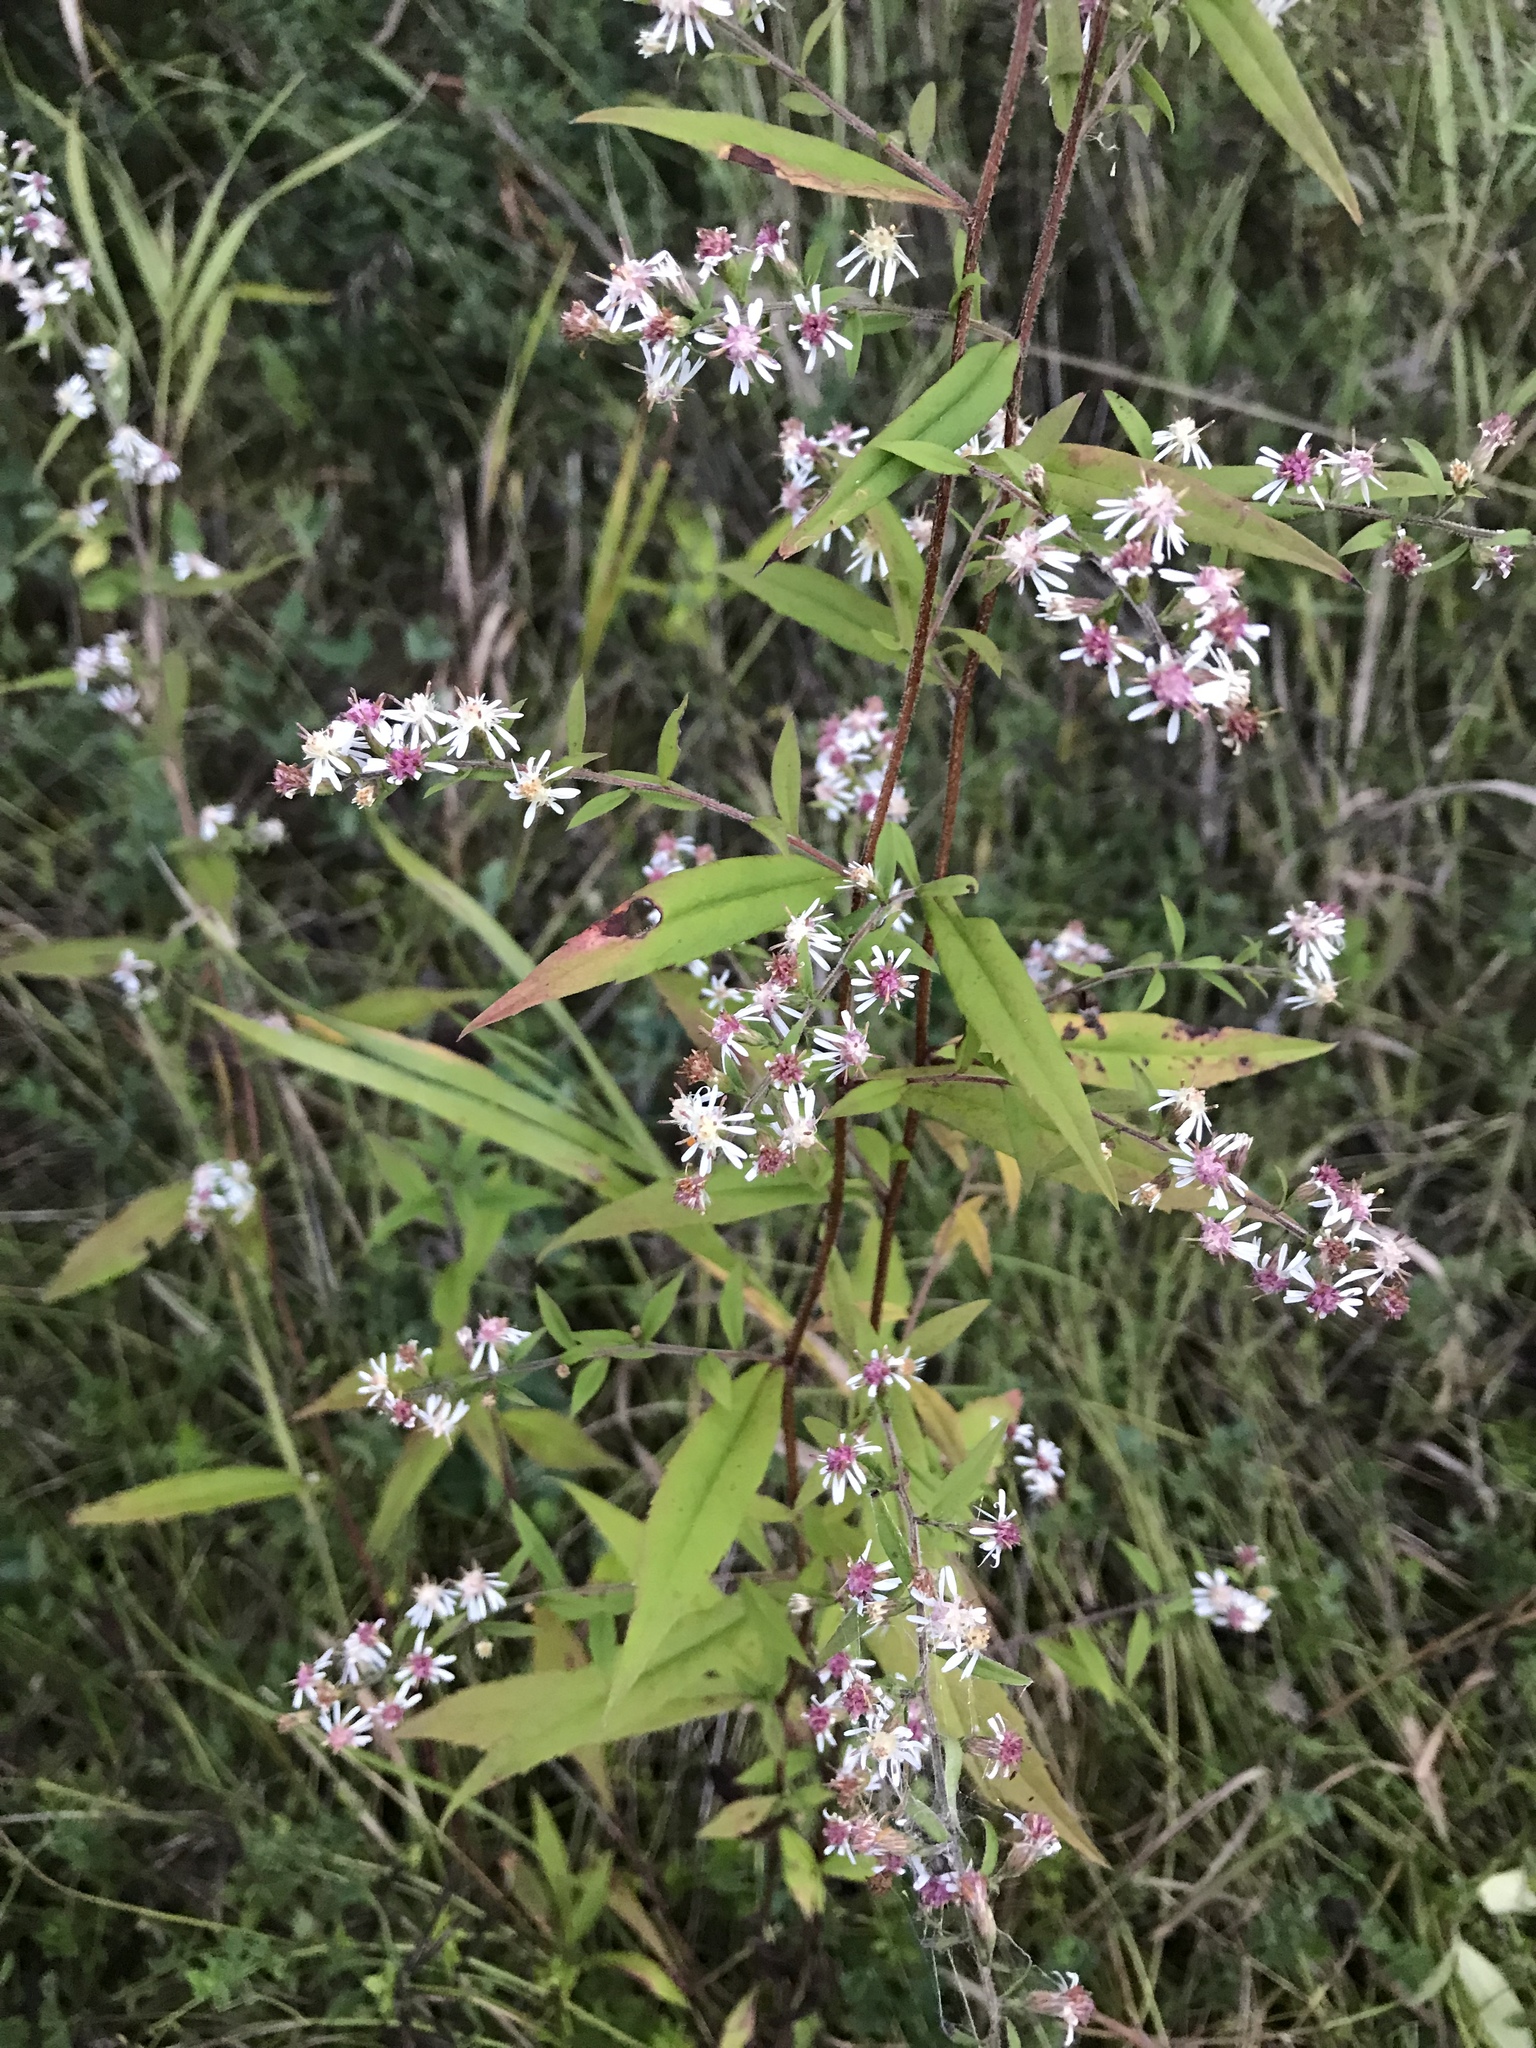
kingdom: Plantae
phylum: Tracheophyta
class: Magnoliopsida
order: Asterales
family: Asteraceae
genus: Symphyotrichum
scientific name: Symphyotrichum lateriflorum
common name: Calico aster
